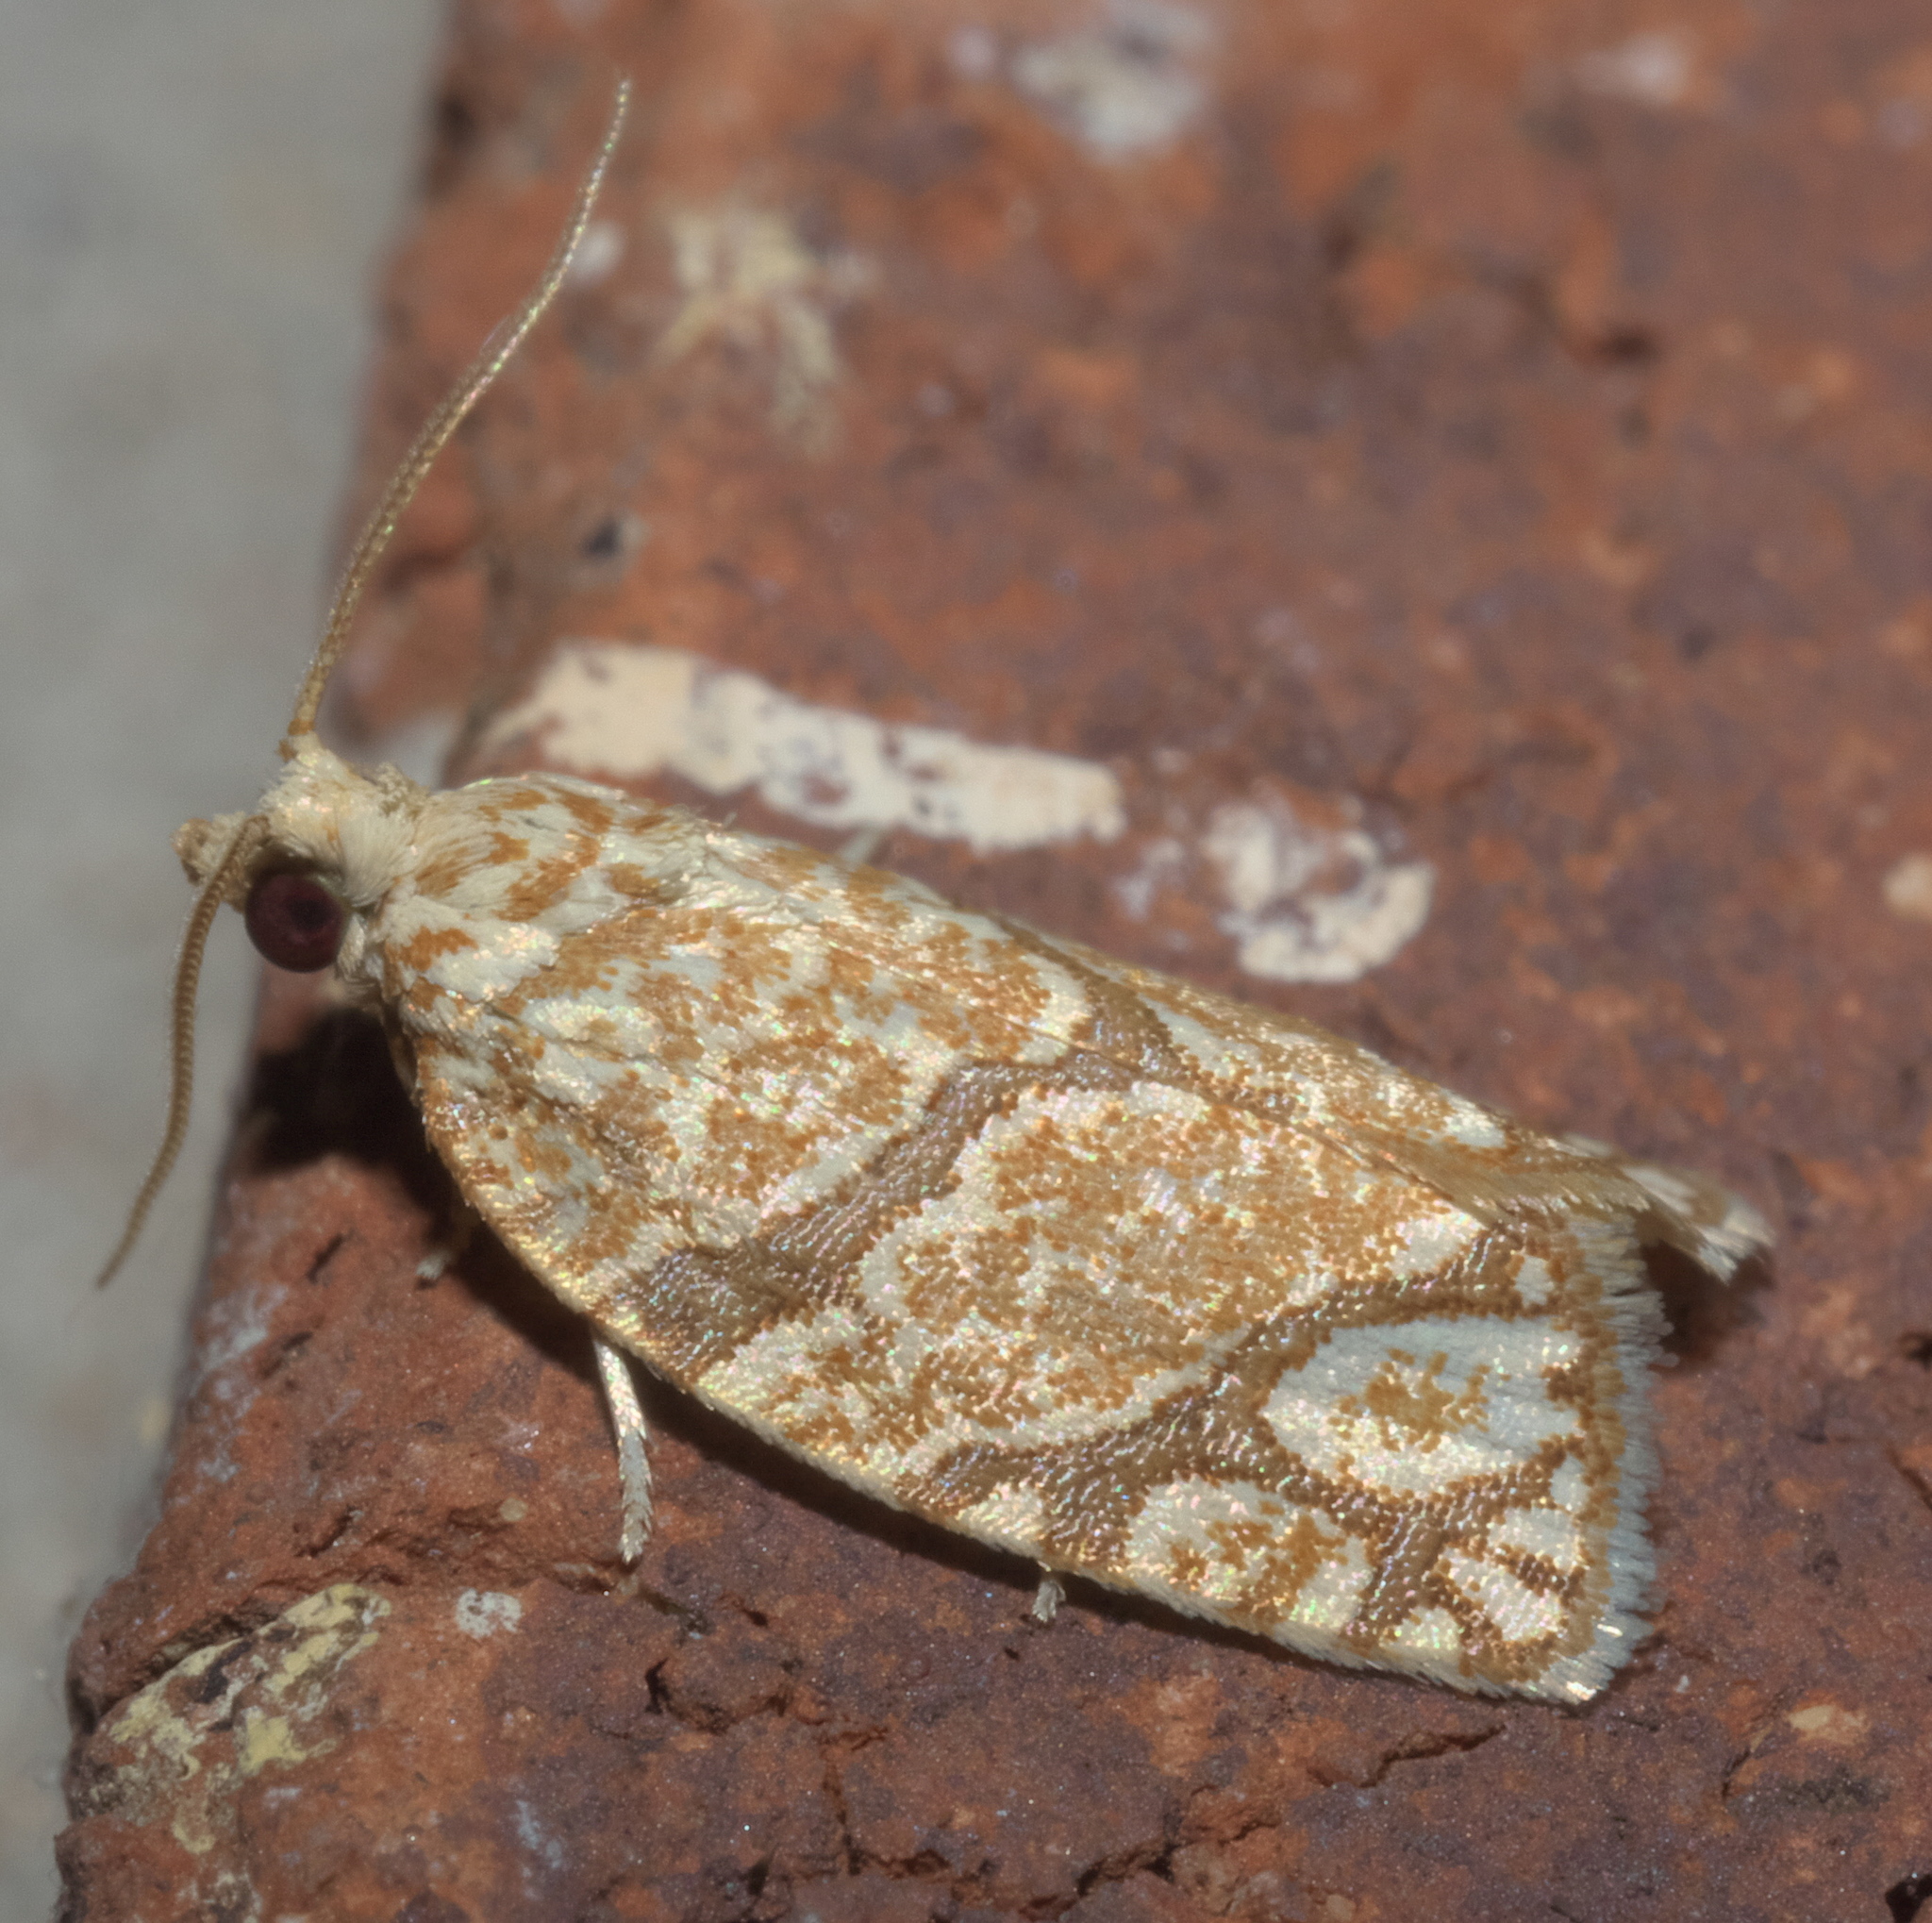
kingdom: Animalia
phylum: Arthropoda
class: Insecta
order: Lepidoptera
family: Tortricidae
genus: Argyrotaenia
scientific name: Argyrotaenia quercifoliana
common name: Yellow-winged oak leafroller moth
